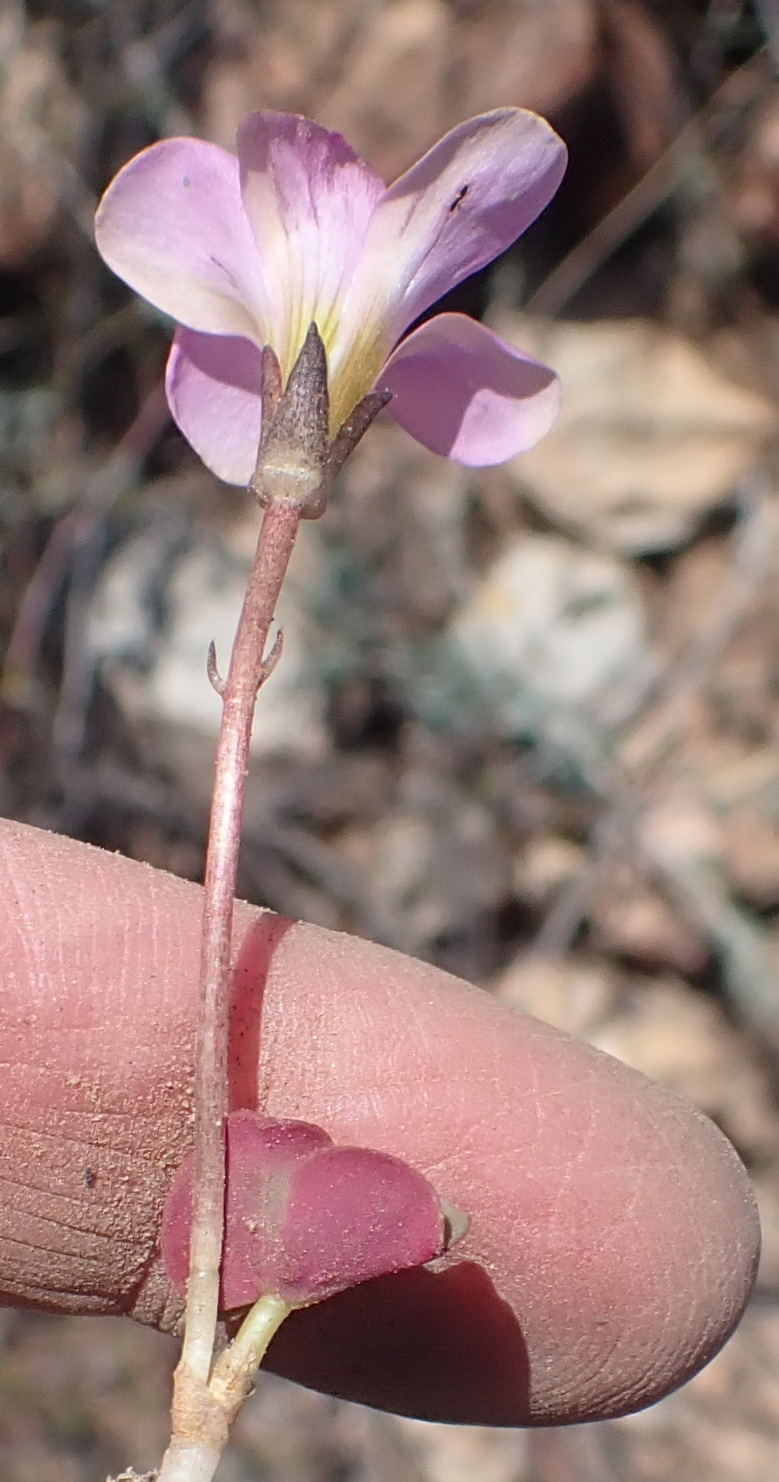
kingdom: Plantae
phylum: Tracheophyta
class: Magnoliopsida
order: Oxalidales
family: Oxalidaceae
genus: Oxalis
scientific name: Oxalis depressa
